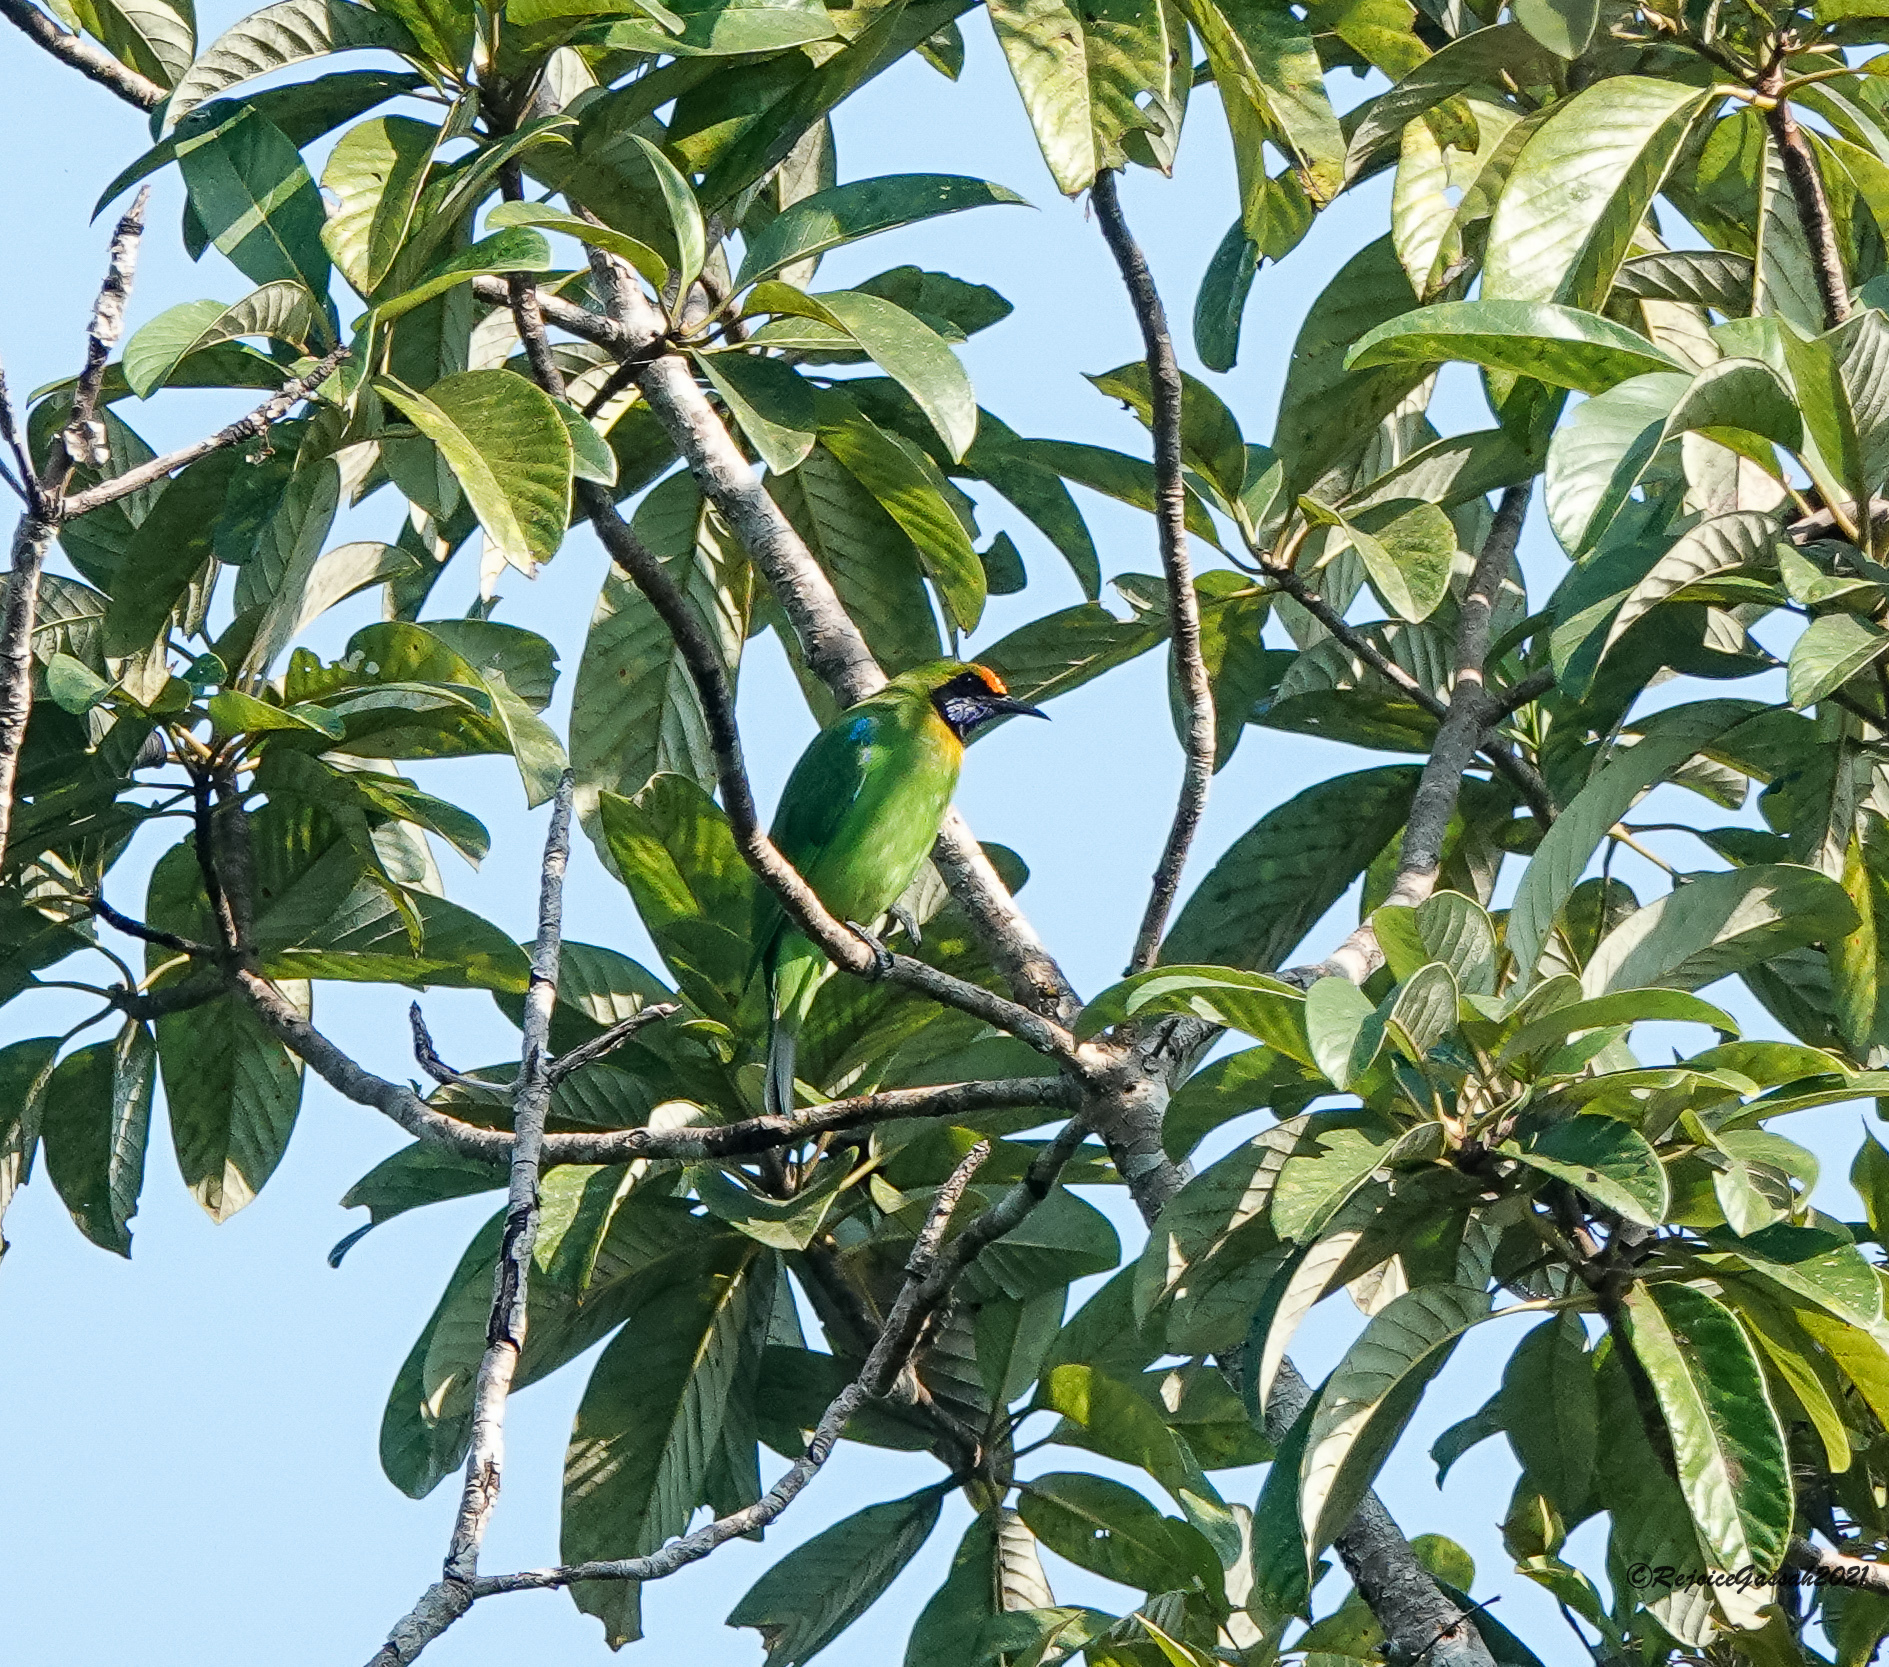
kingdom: Animalia
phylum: Chordata
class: Aves
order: Passeriformes
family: Chloropseidae
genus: Chloropsis
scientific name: Chloropsis aurifrons
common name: Golden-fronted leafbird
